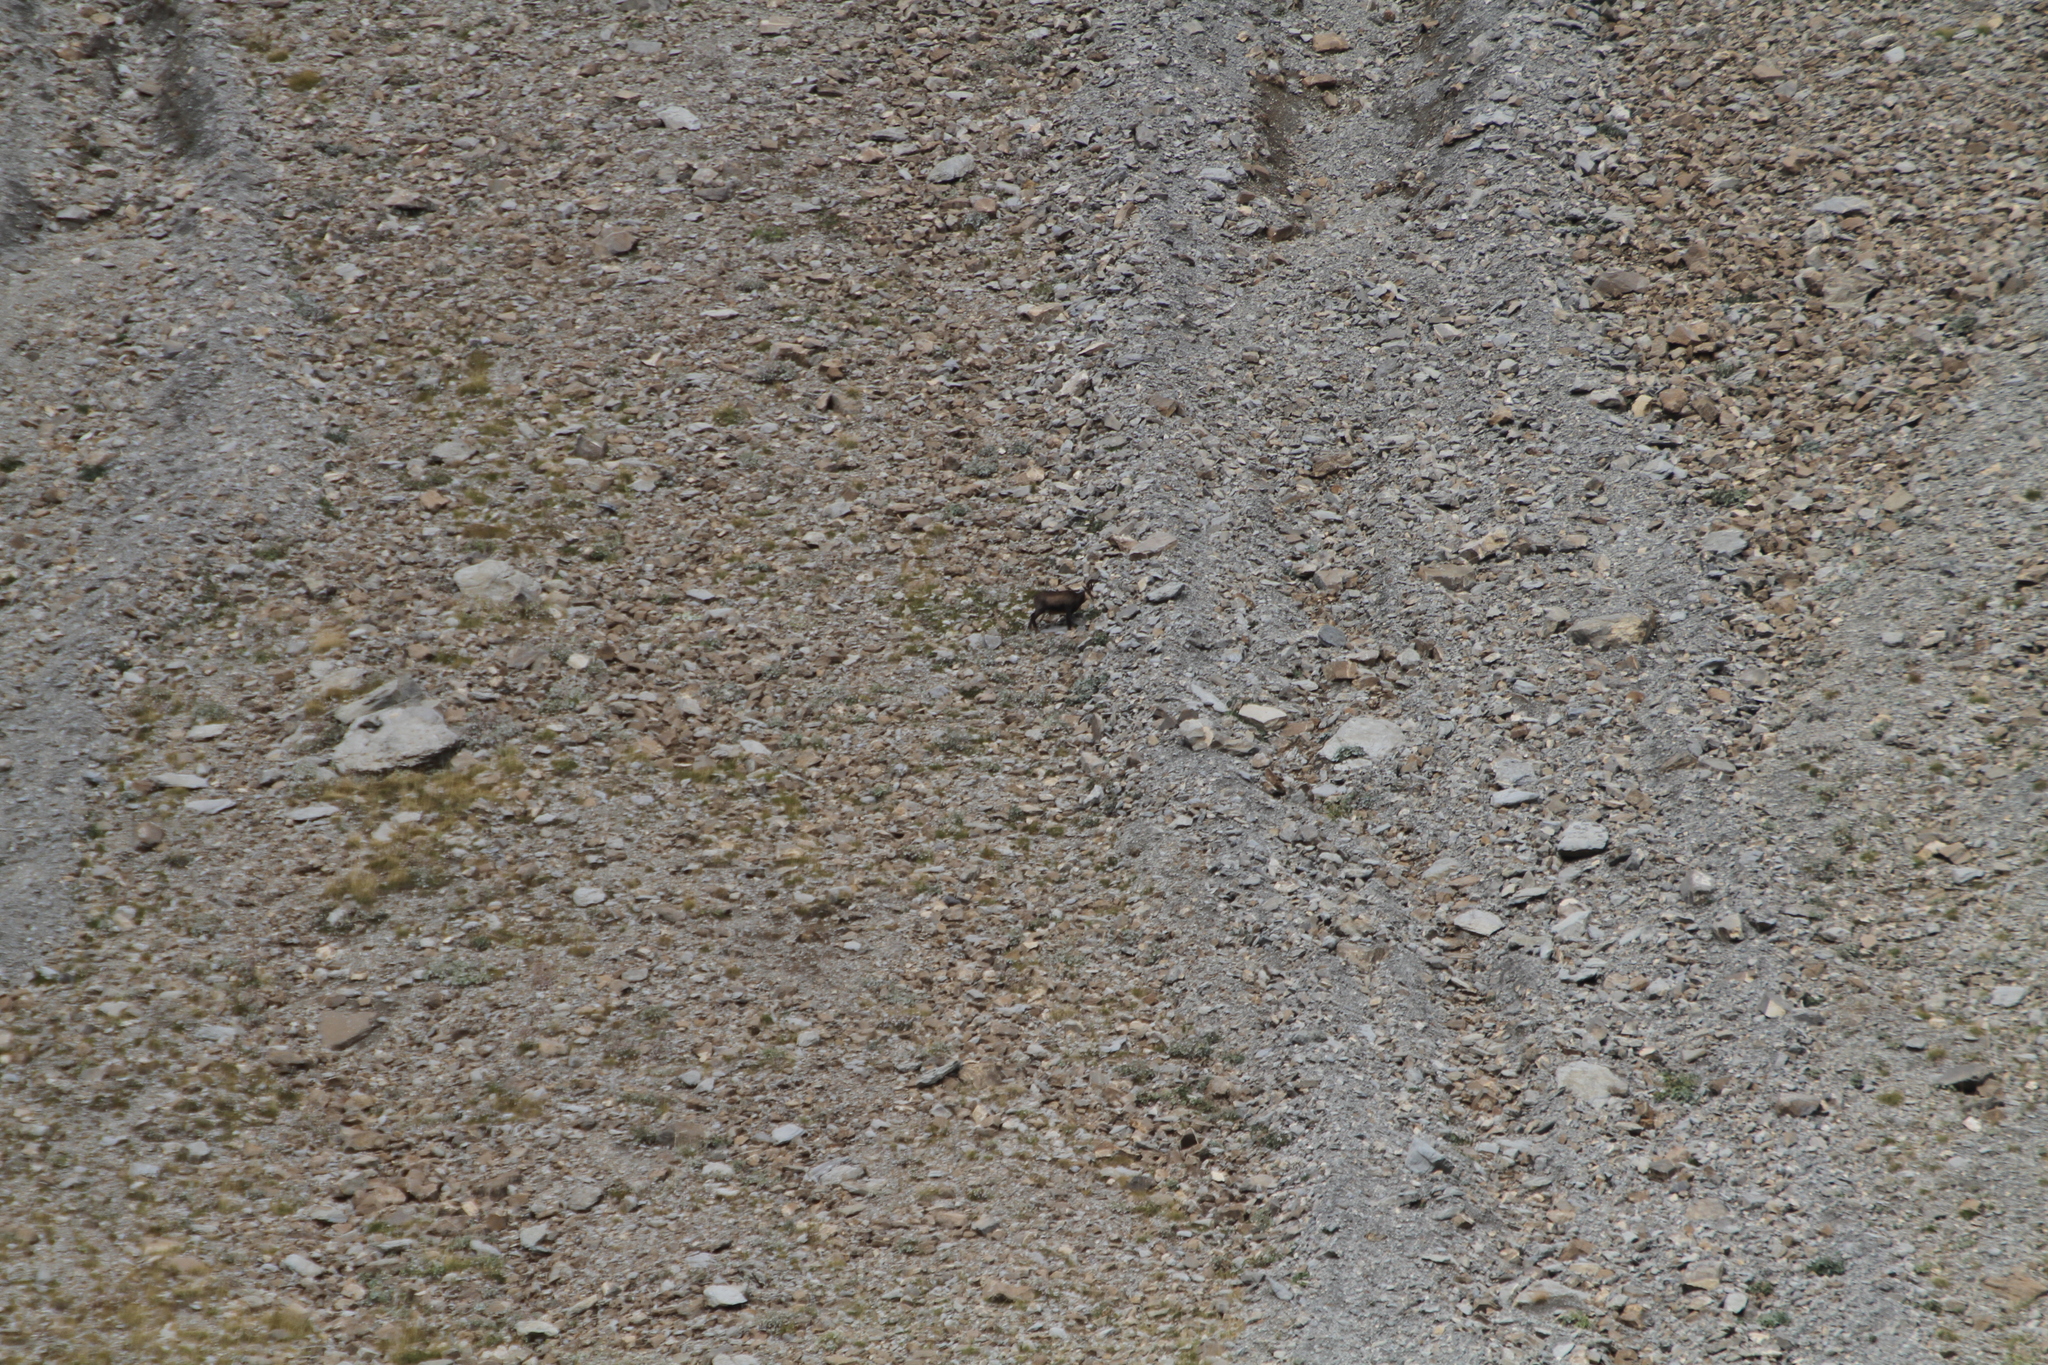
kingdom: Animalia
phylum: Chordata
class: Mammalia
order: Artiodactyla
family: Bovidae
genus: Rupicapra
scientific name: Rupicapra rupicapra
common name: Chamois
